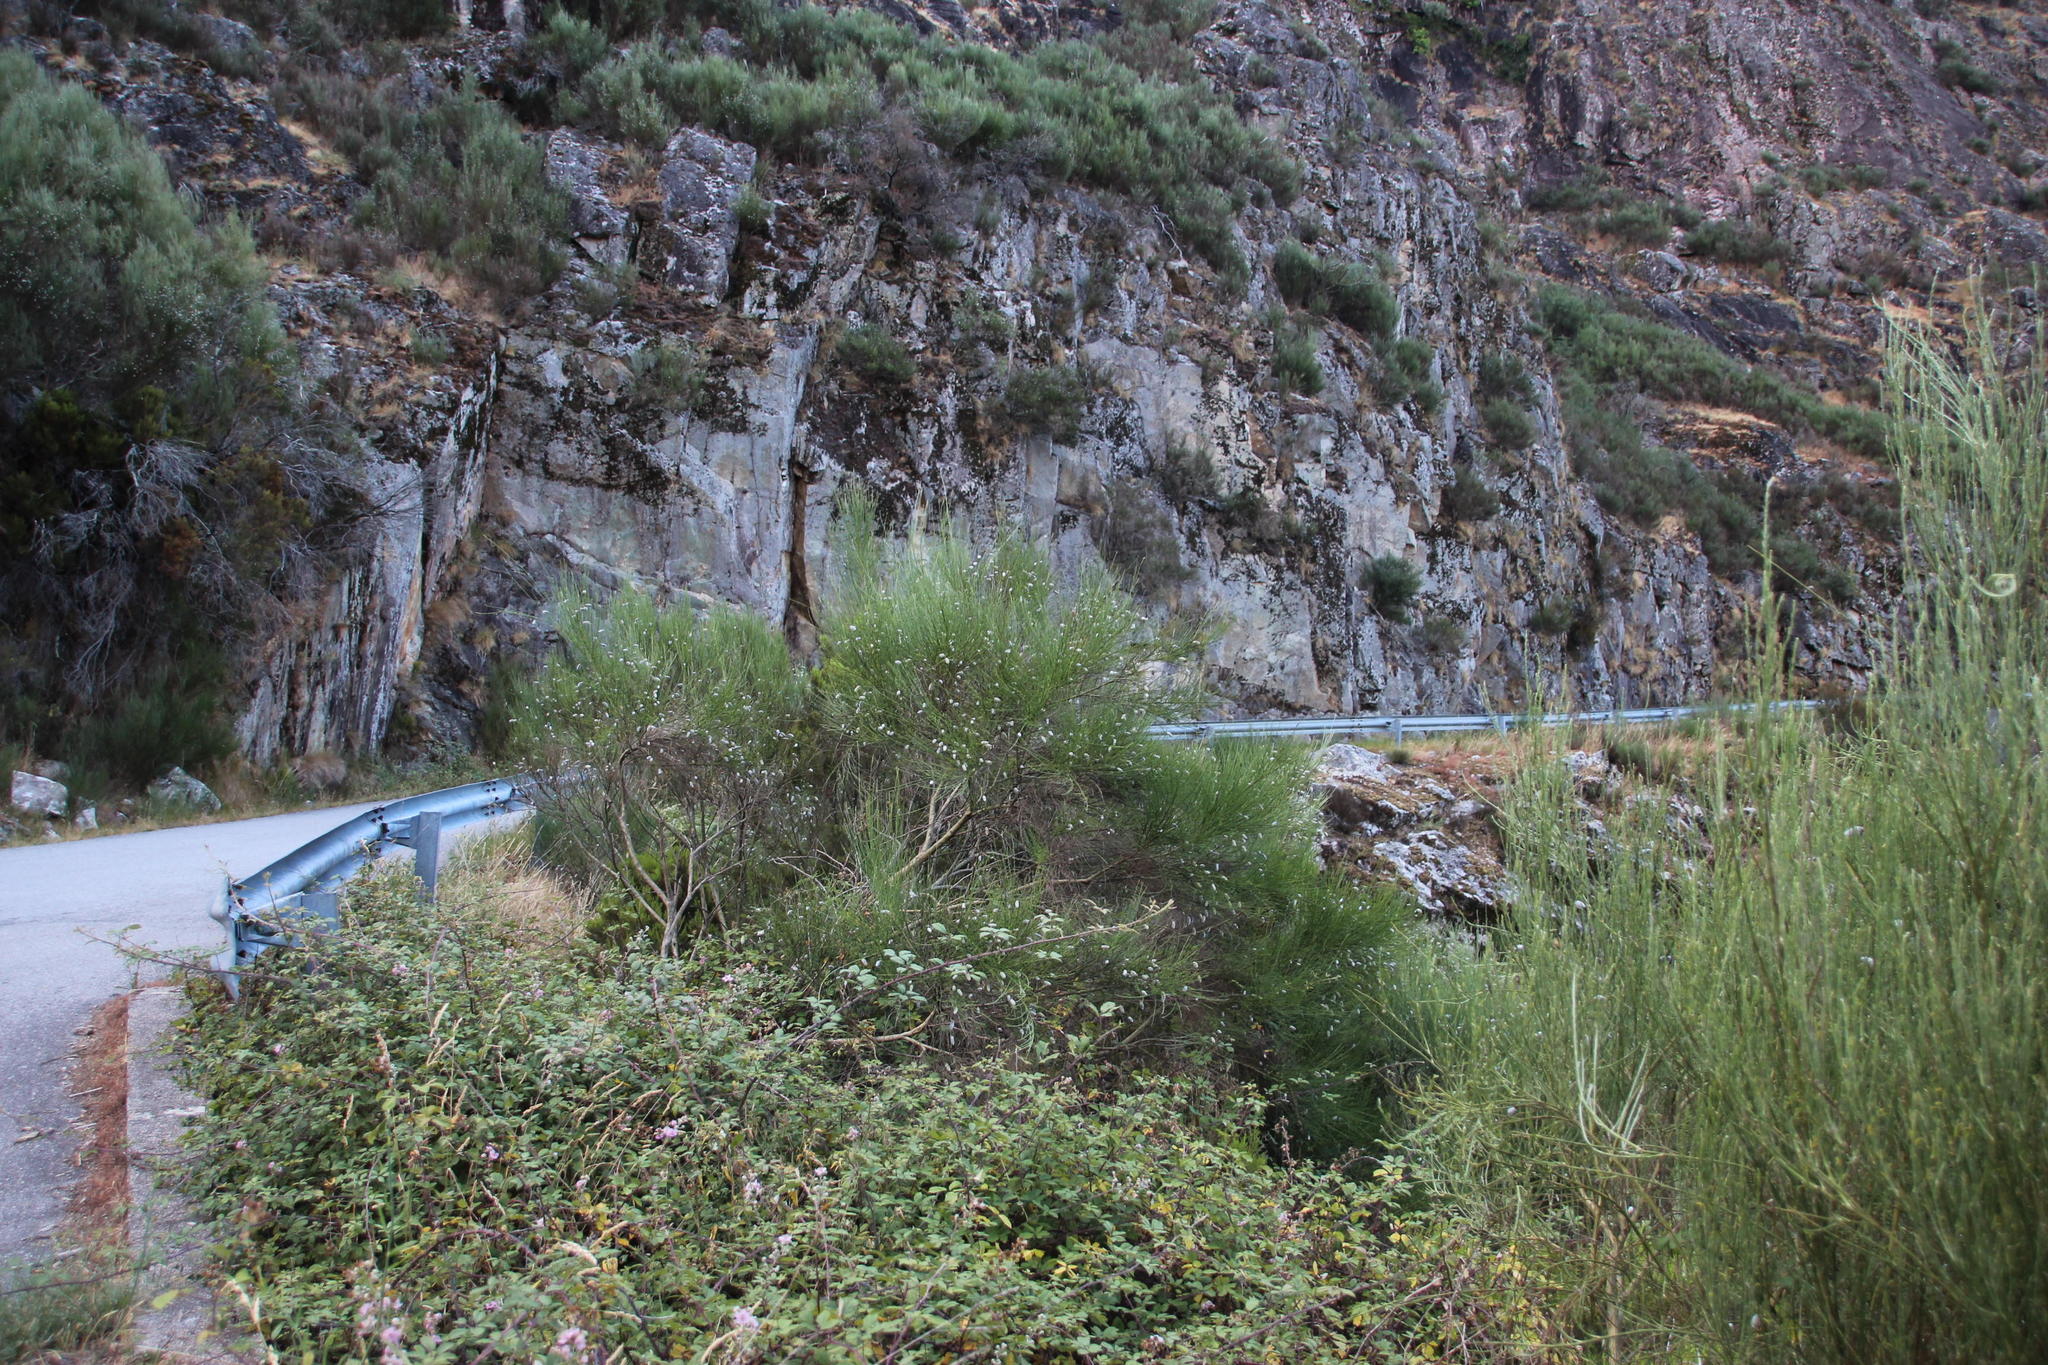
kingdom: Plantae
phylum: Tracheophyta
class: Magnoliopsida
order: Fabales
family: Fabaceae
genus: Cytisus
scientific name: Cytisus striatus
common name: Hairy-fruited broom
